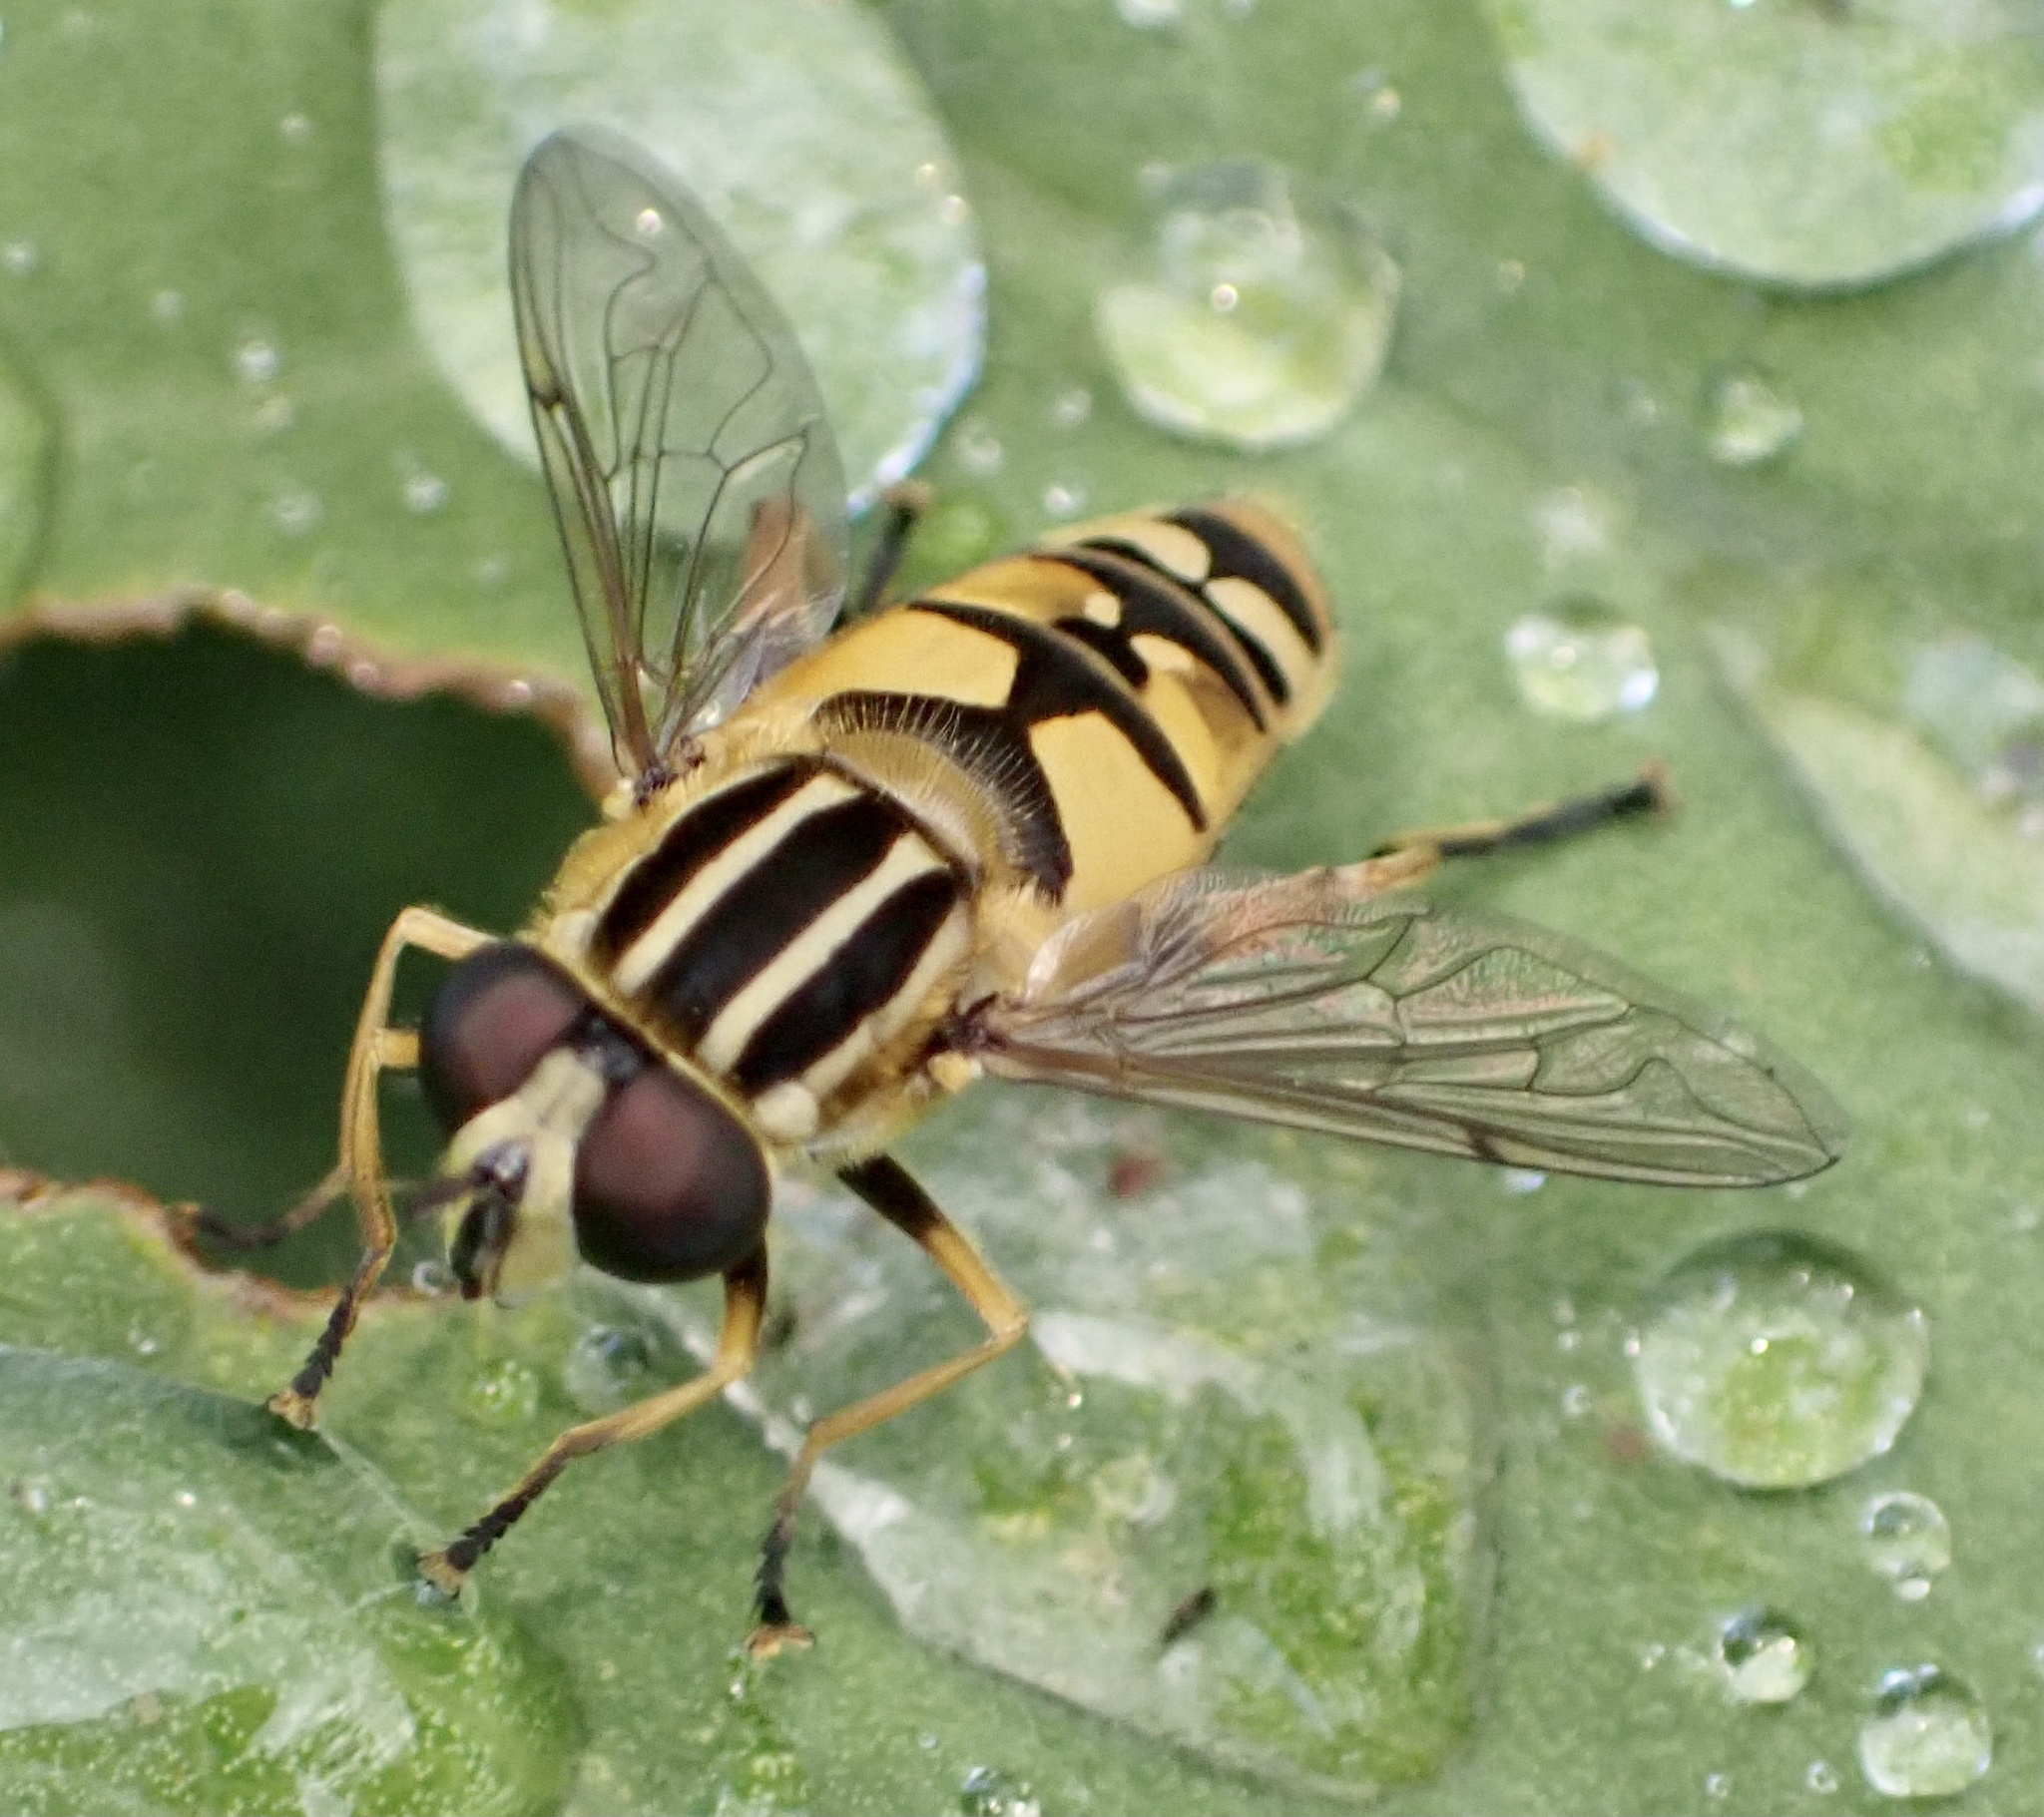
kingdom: Animalia
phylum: Arthropoda
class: Insecta
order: Diptera
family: Syrphidae
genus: Helophilus
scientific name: Helophilus pendulus
